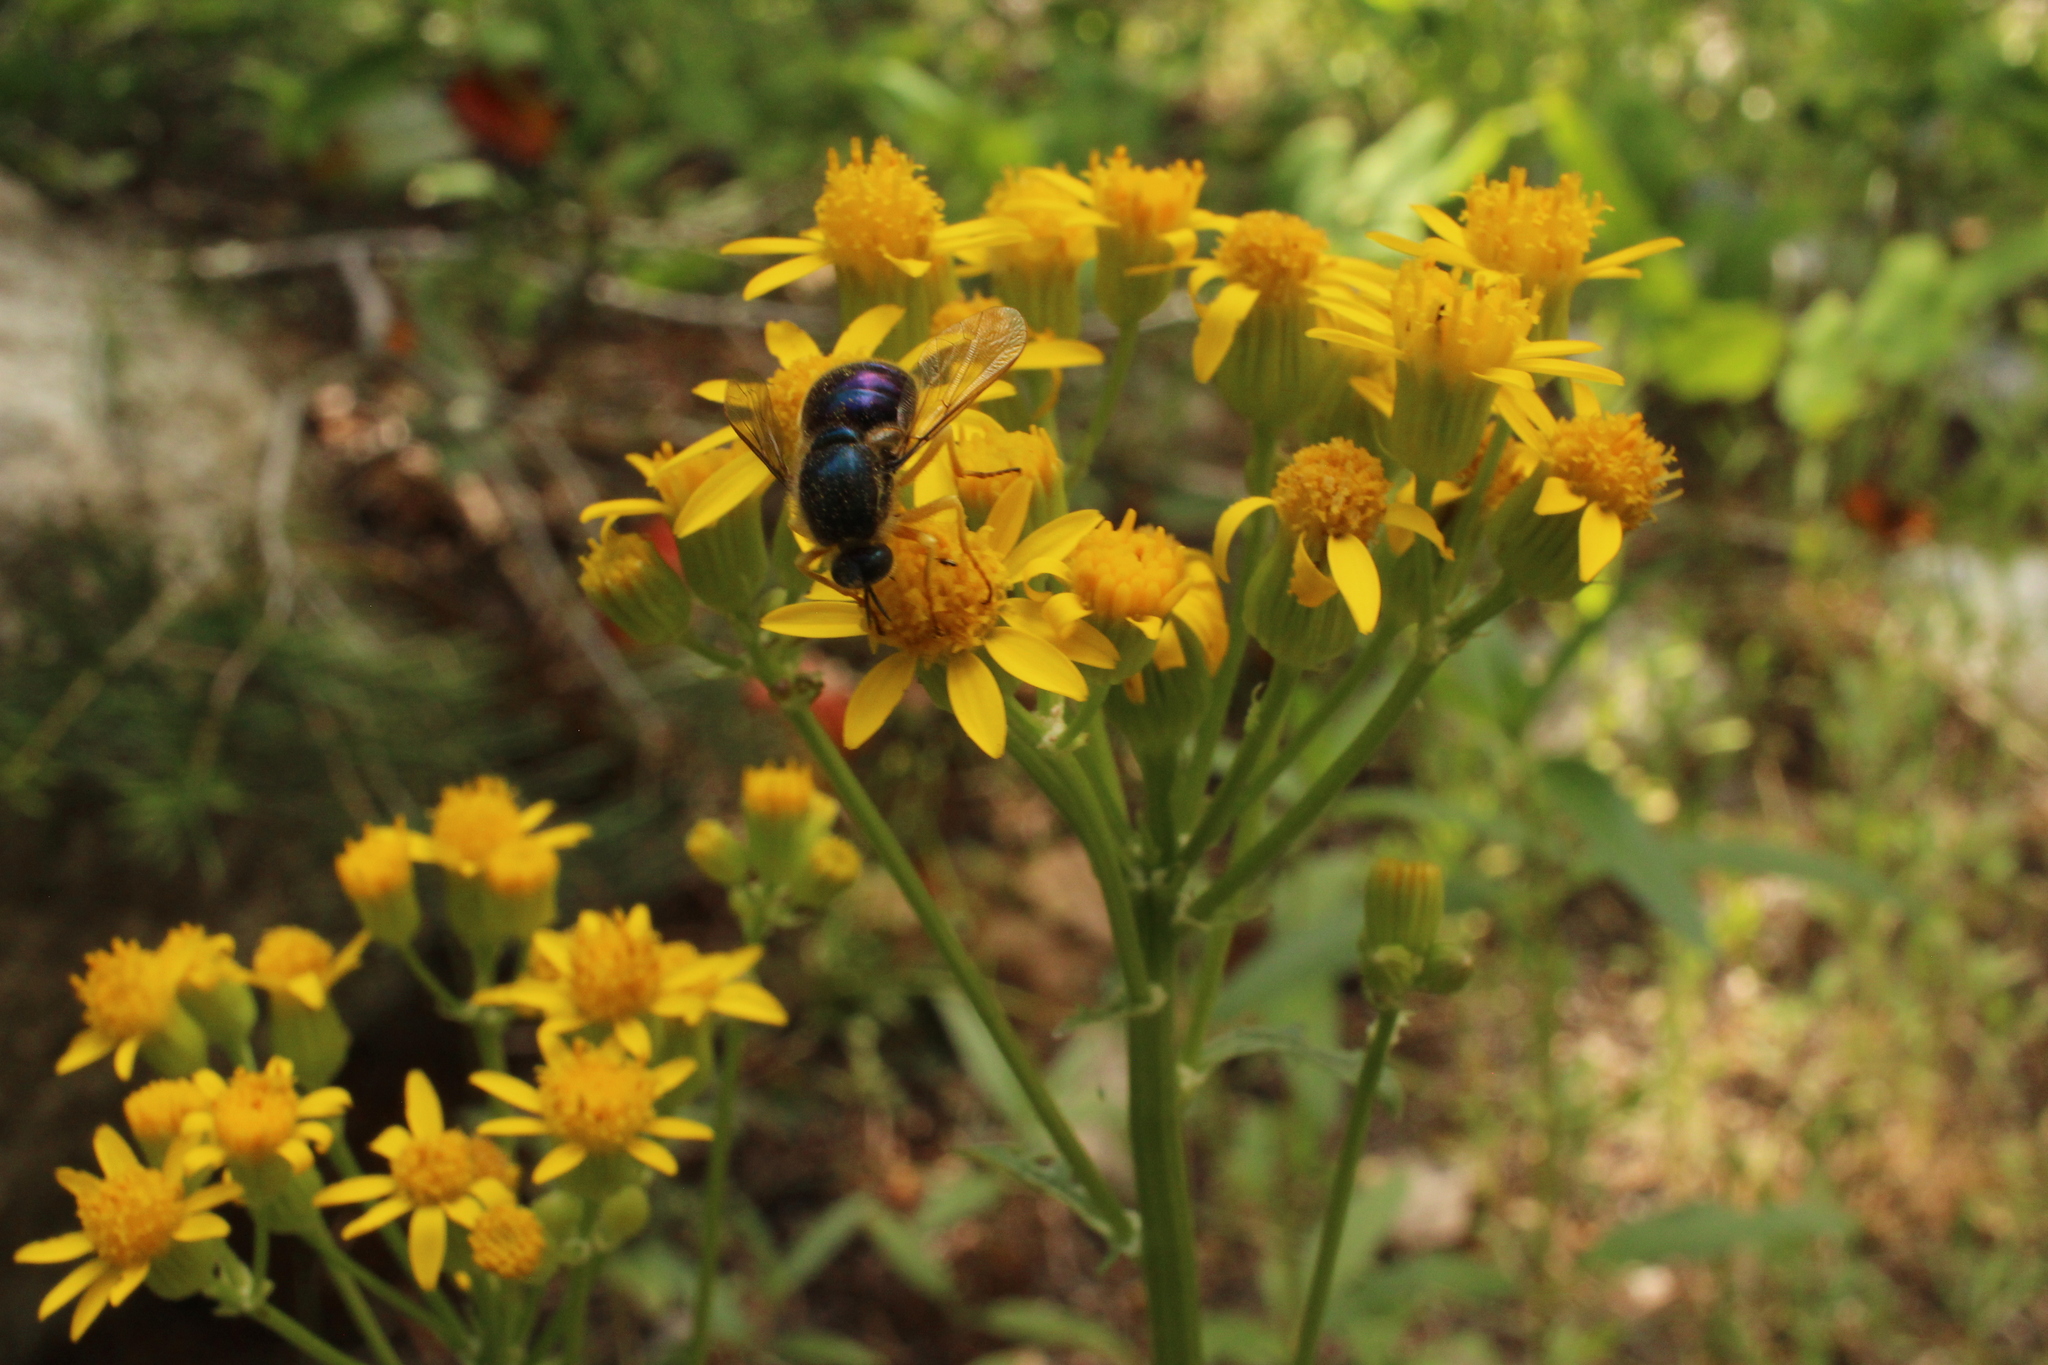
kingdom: Animalia
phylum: Arthropoda
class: Insecta
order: Diptera
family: Acroceridae
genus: Eulonchus
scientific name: Eulonchus sapphirinus
